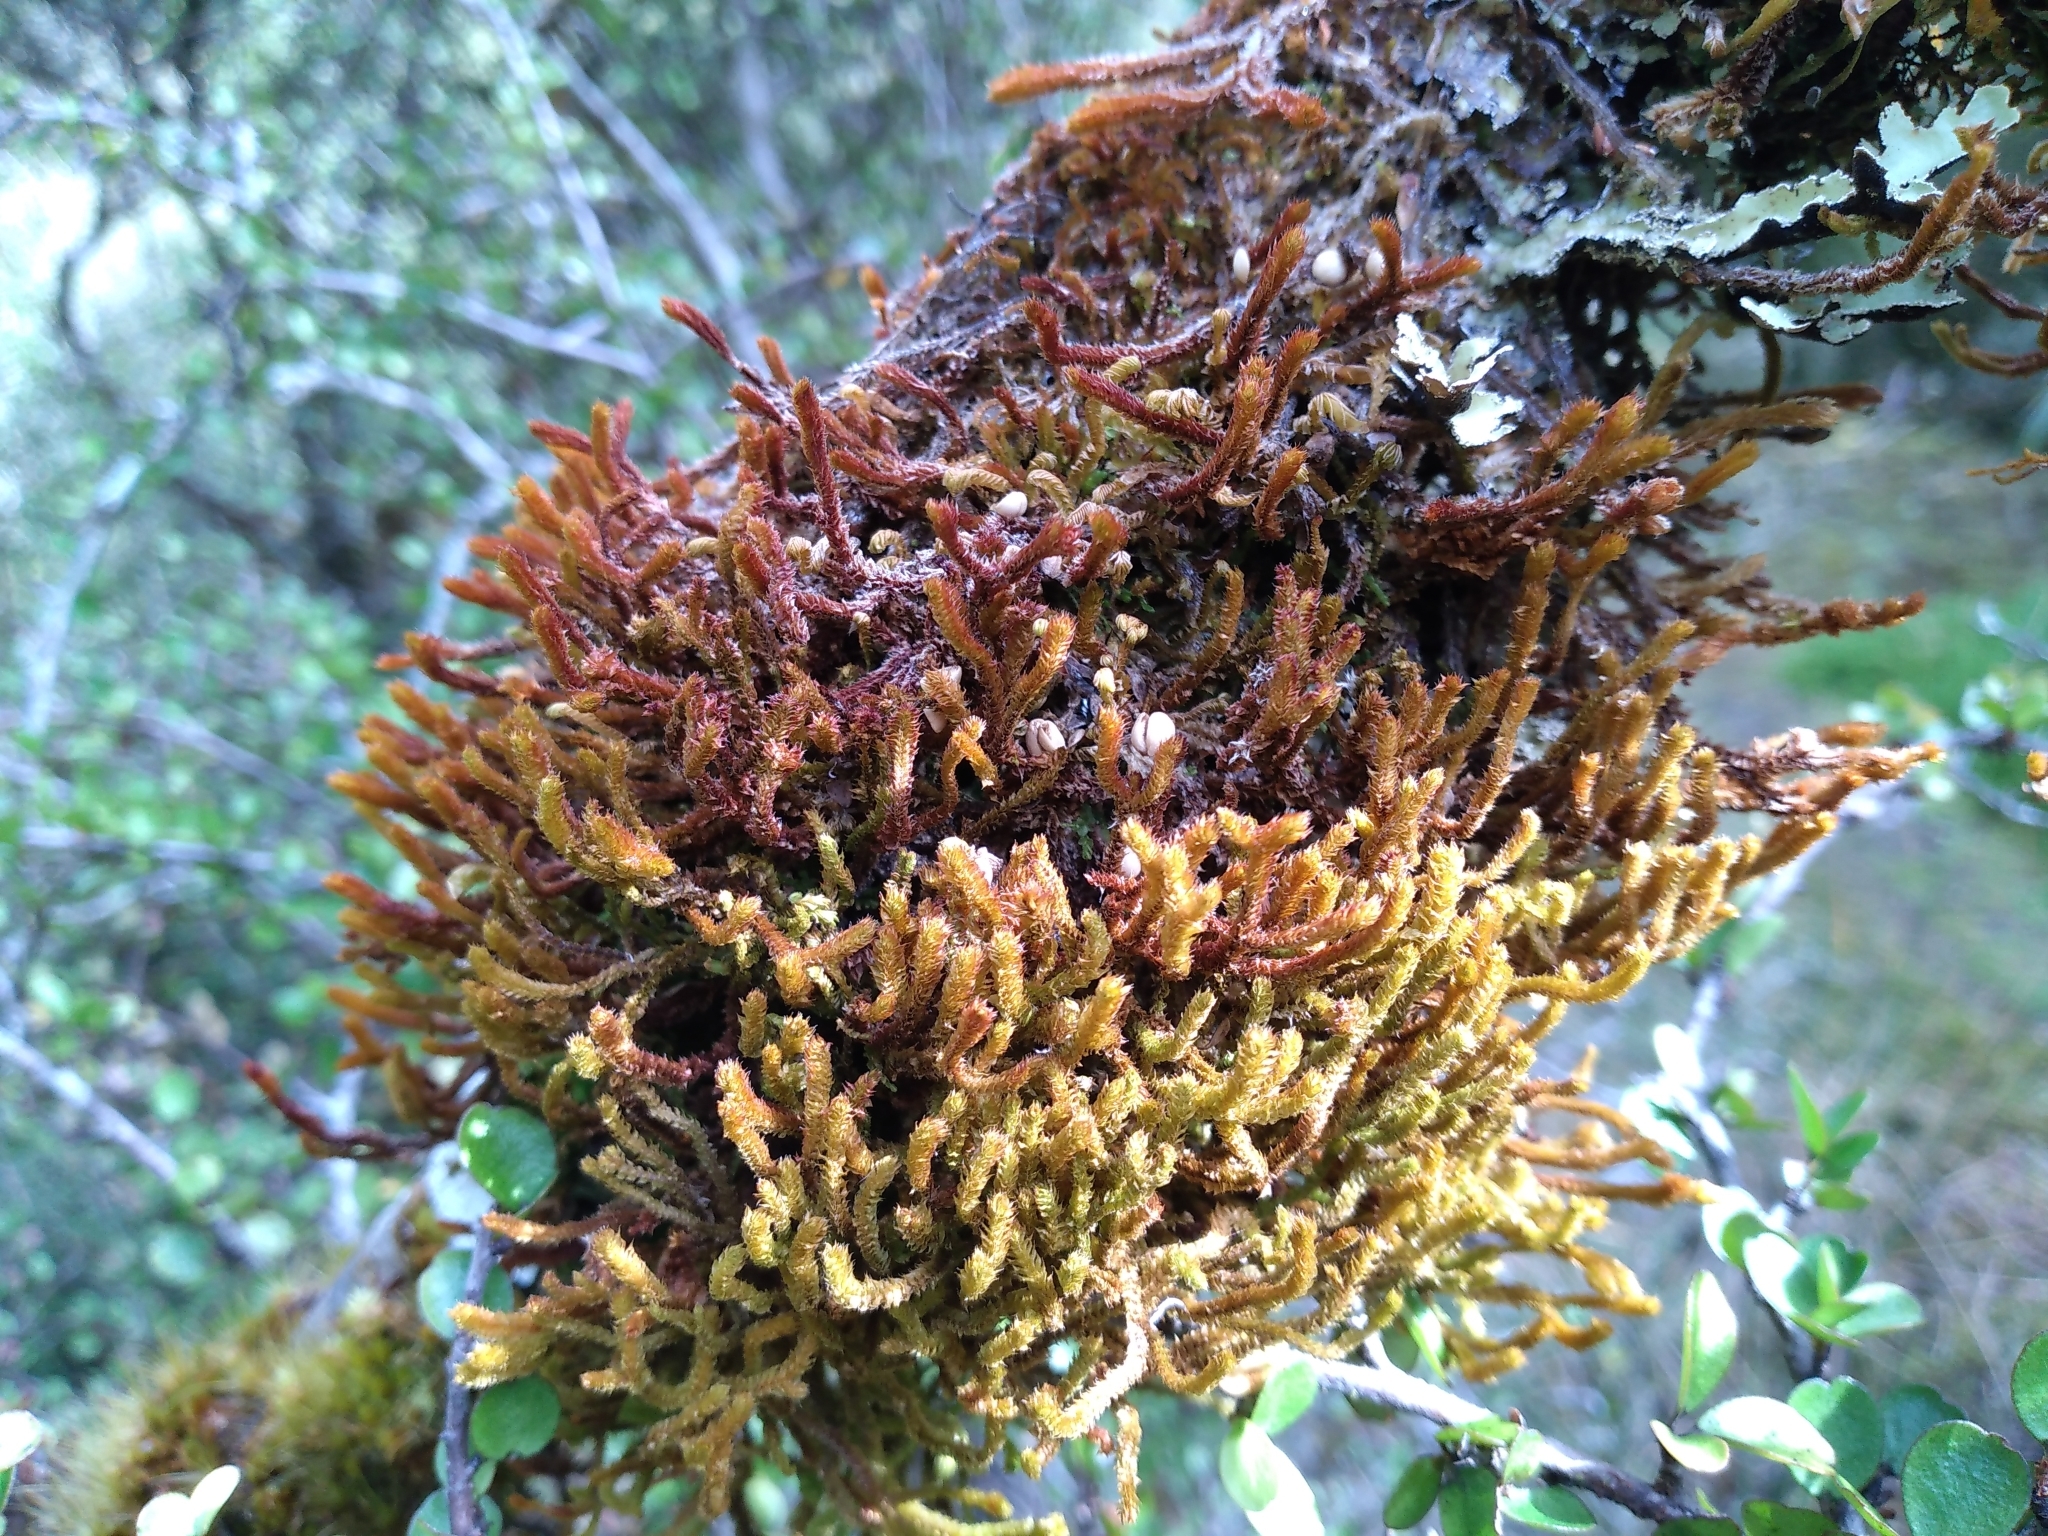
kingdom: Plantae
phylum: Marchantiophyta
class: Jungermanniopsida
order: Jungermanniales
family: Anastrophyllaceae
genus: Chandonanthus
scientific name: Chandonanthus squarrosus
